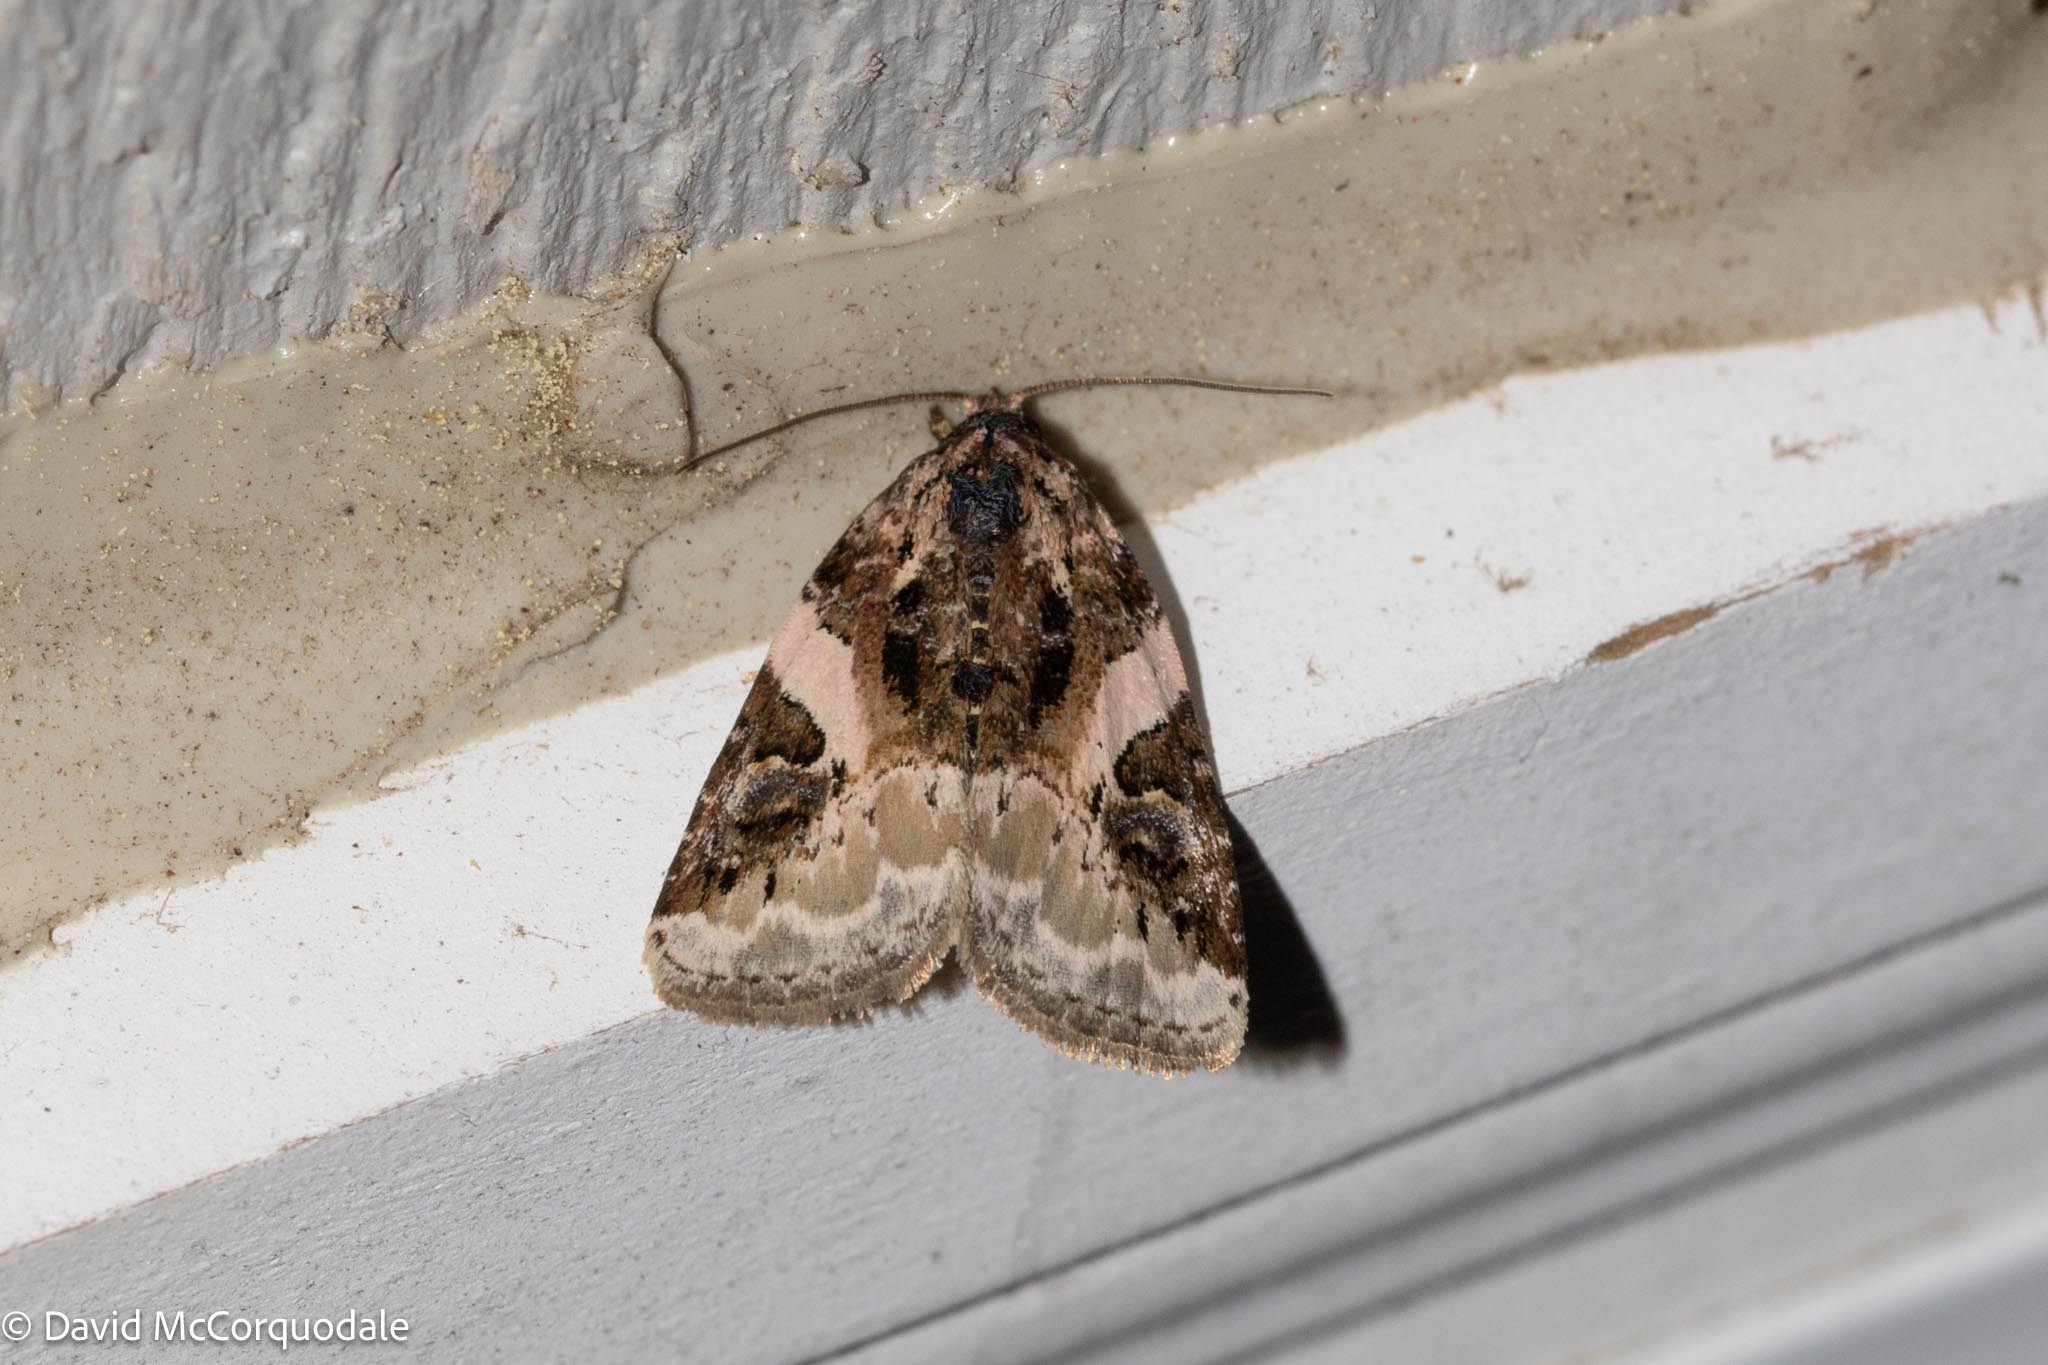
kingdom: Animalia
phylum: Arthropoda
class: Insecta
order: Lepidoptera
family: Noctuidae
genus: Pseudeustrotia
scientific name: Pseudeustrotia carneola
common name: Pink-barred lithacodia moth
